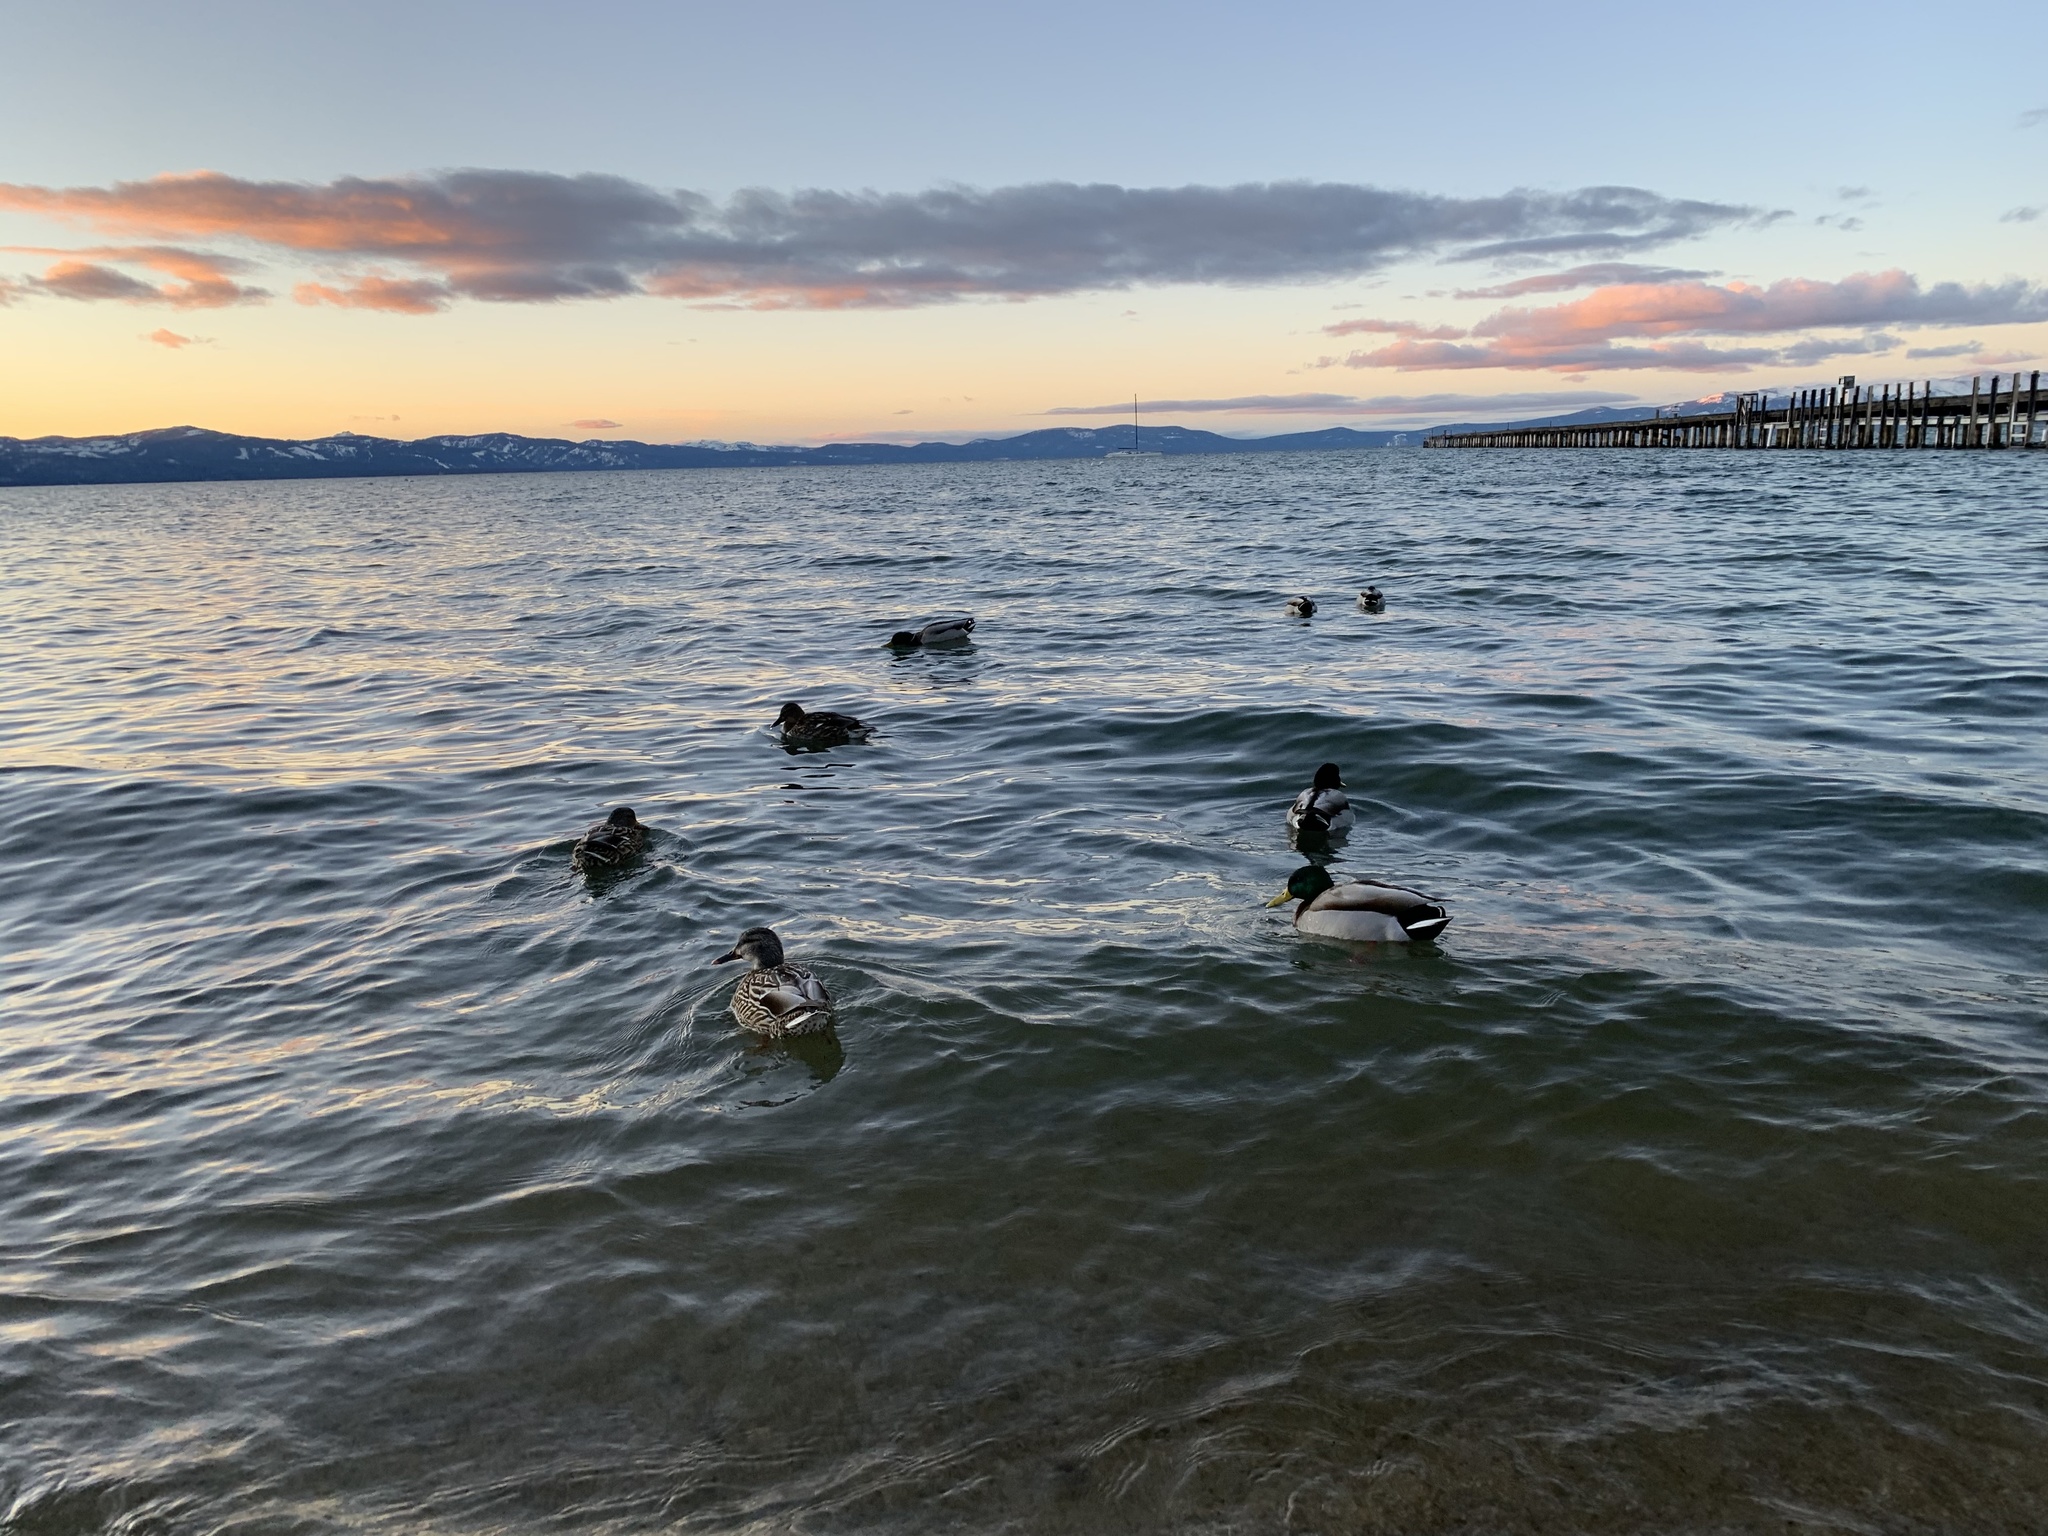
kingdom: Animalia
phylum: Chordata
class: Aves
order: Anseriformes
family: Anatidae
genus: Anas
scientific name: Anas platyrhynchos
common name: Mallard
